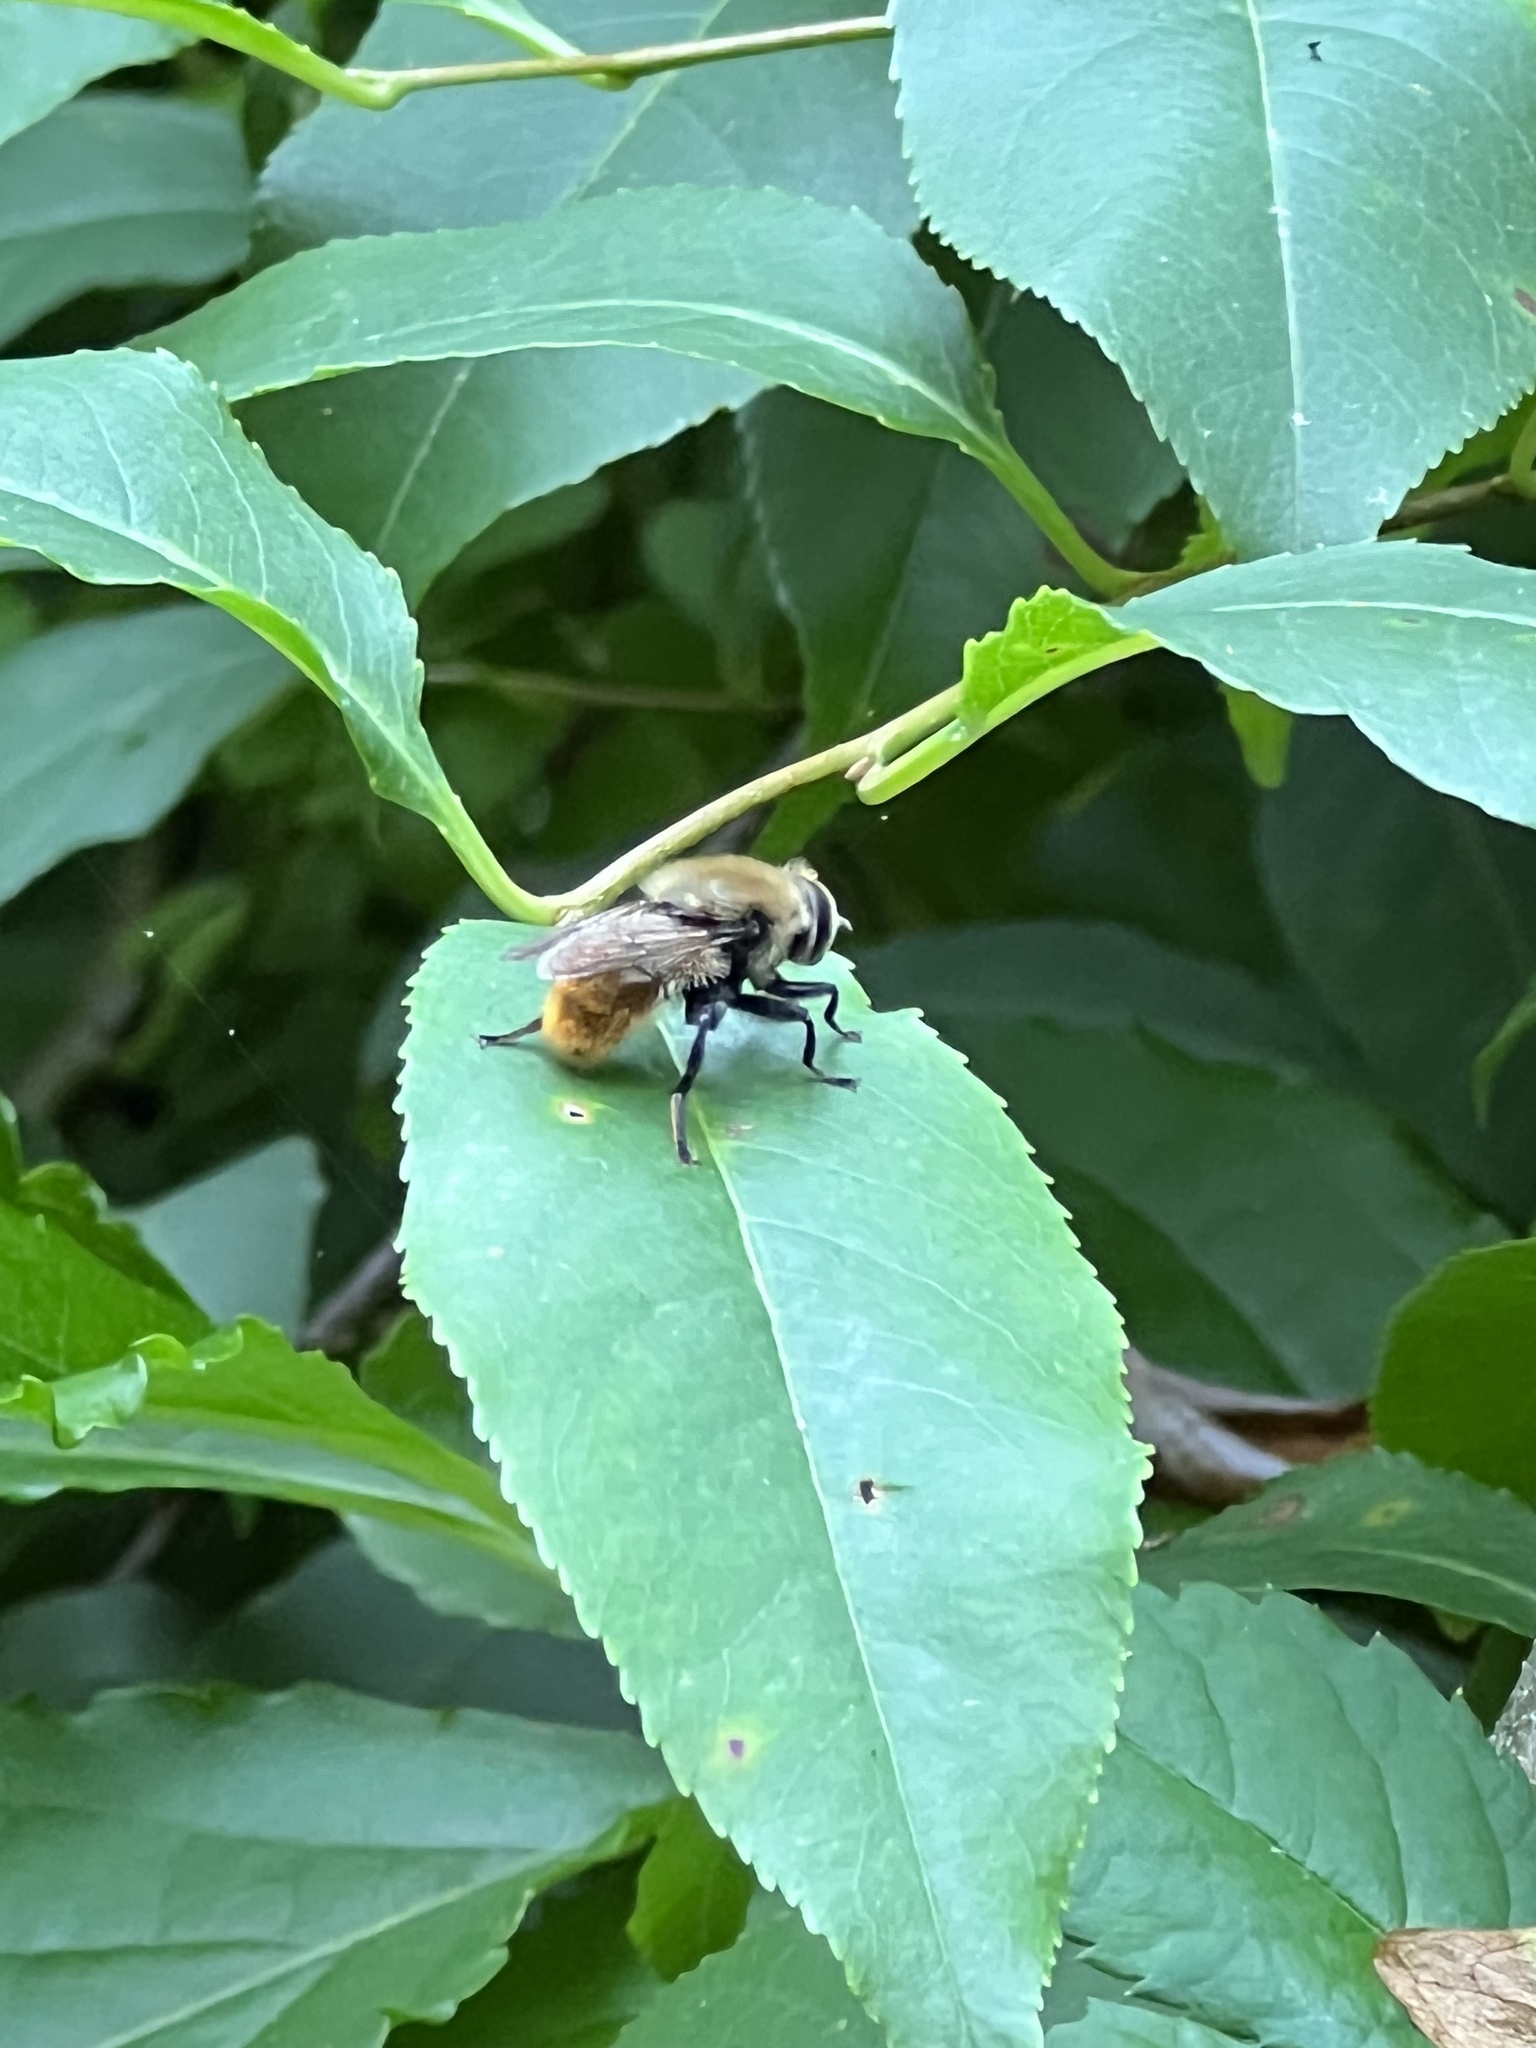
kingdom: Animalia
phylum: Arthropoda
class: Insecta
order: Diptera
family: Syrphidae
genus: Merodon
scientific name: Merodon equestris
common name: Greater bulb-fly
